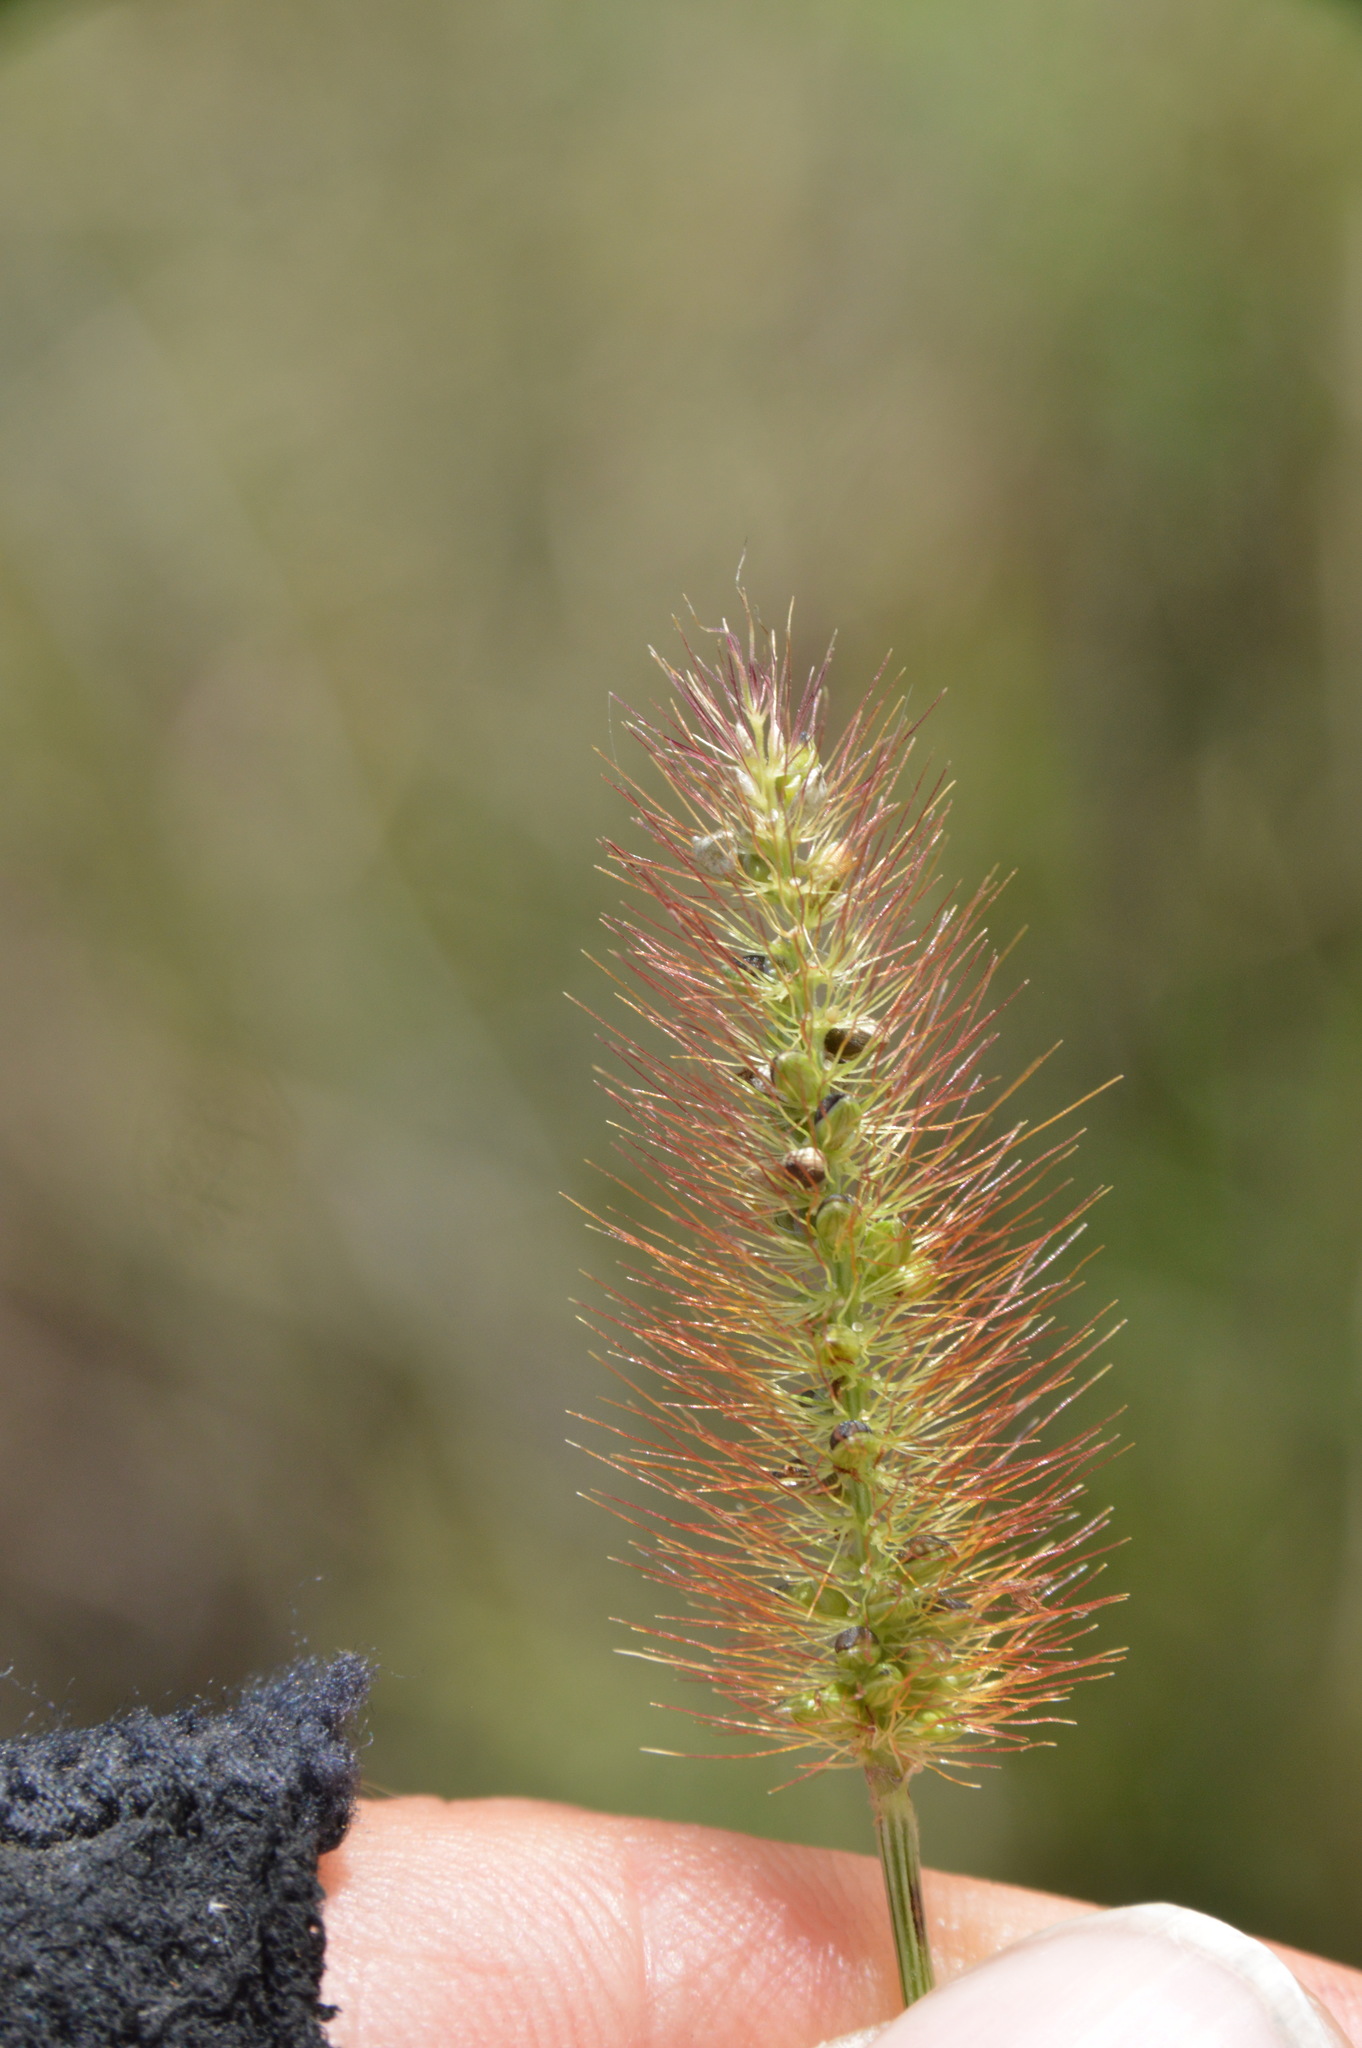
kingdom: Plantae
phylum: Tracheophyta
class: Liliopsida
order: Poales
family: Poaceae
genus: Setaria
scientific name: Setaria parviflora
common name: Knotroot bristle-grass
